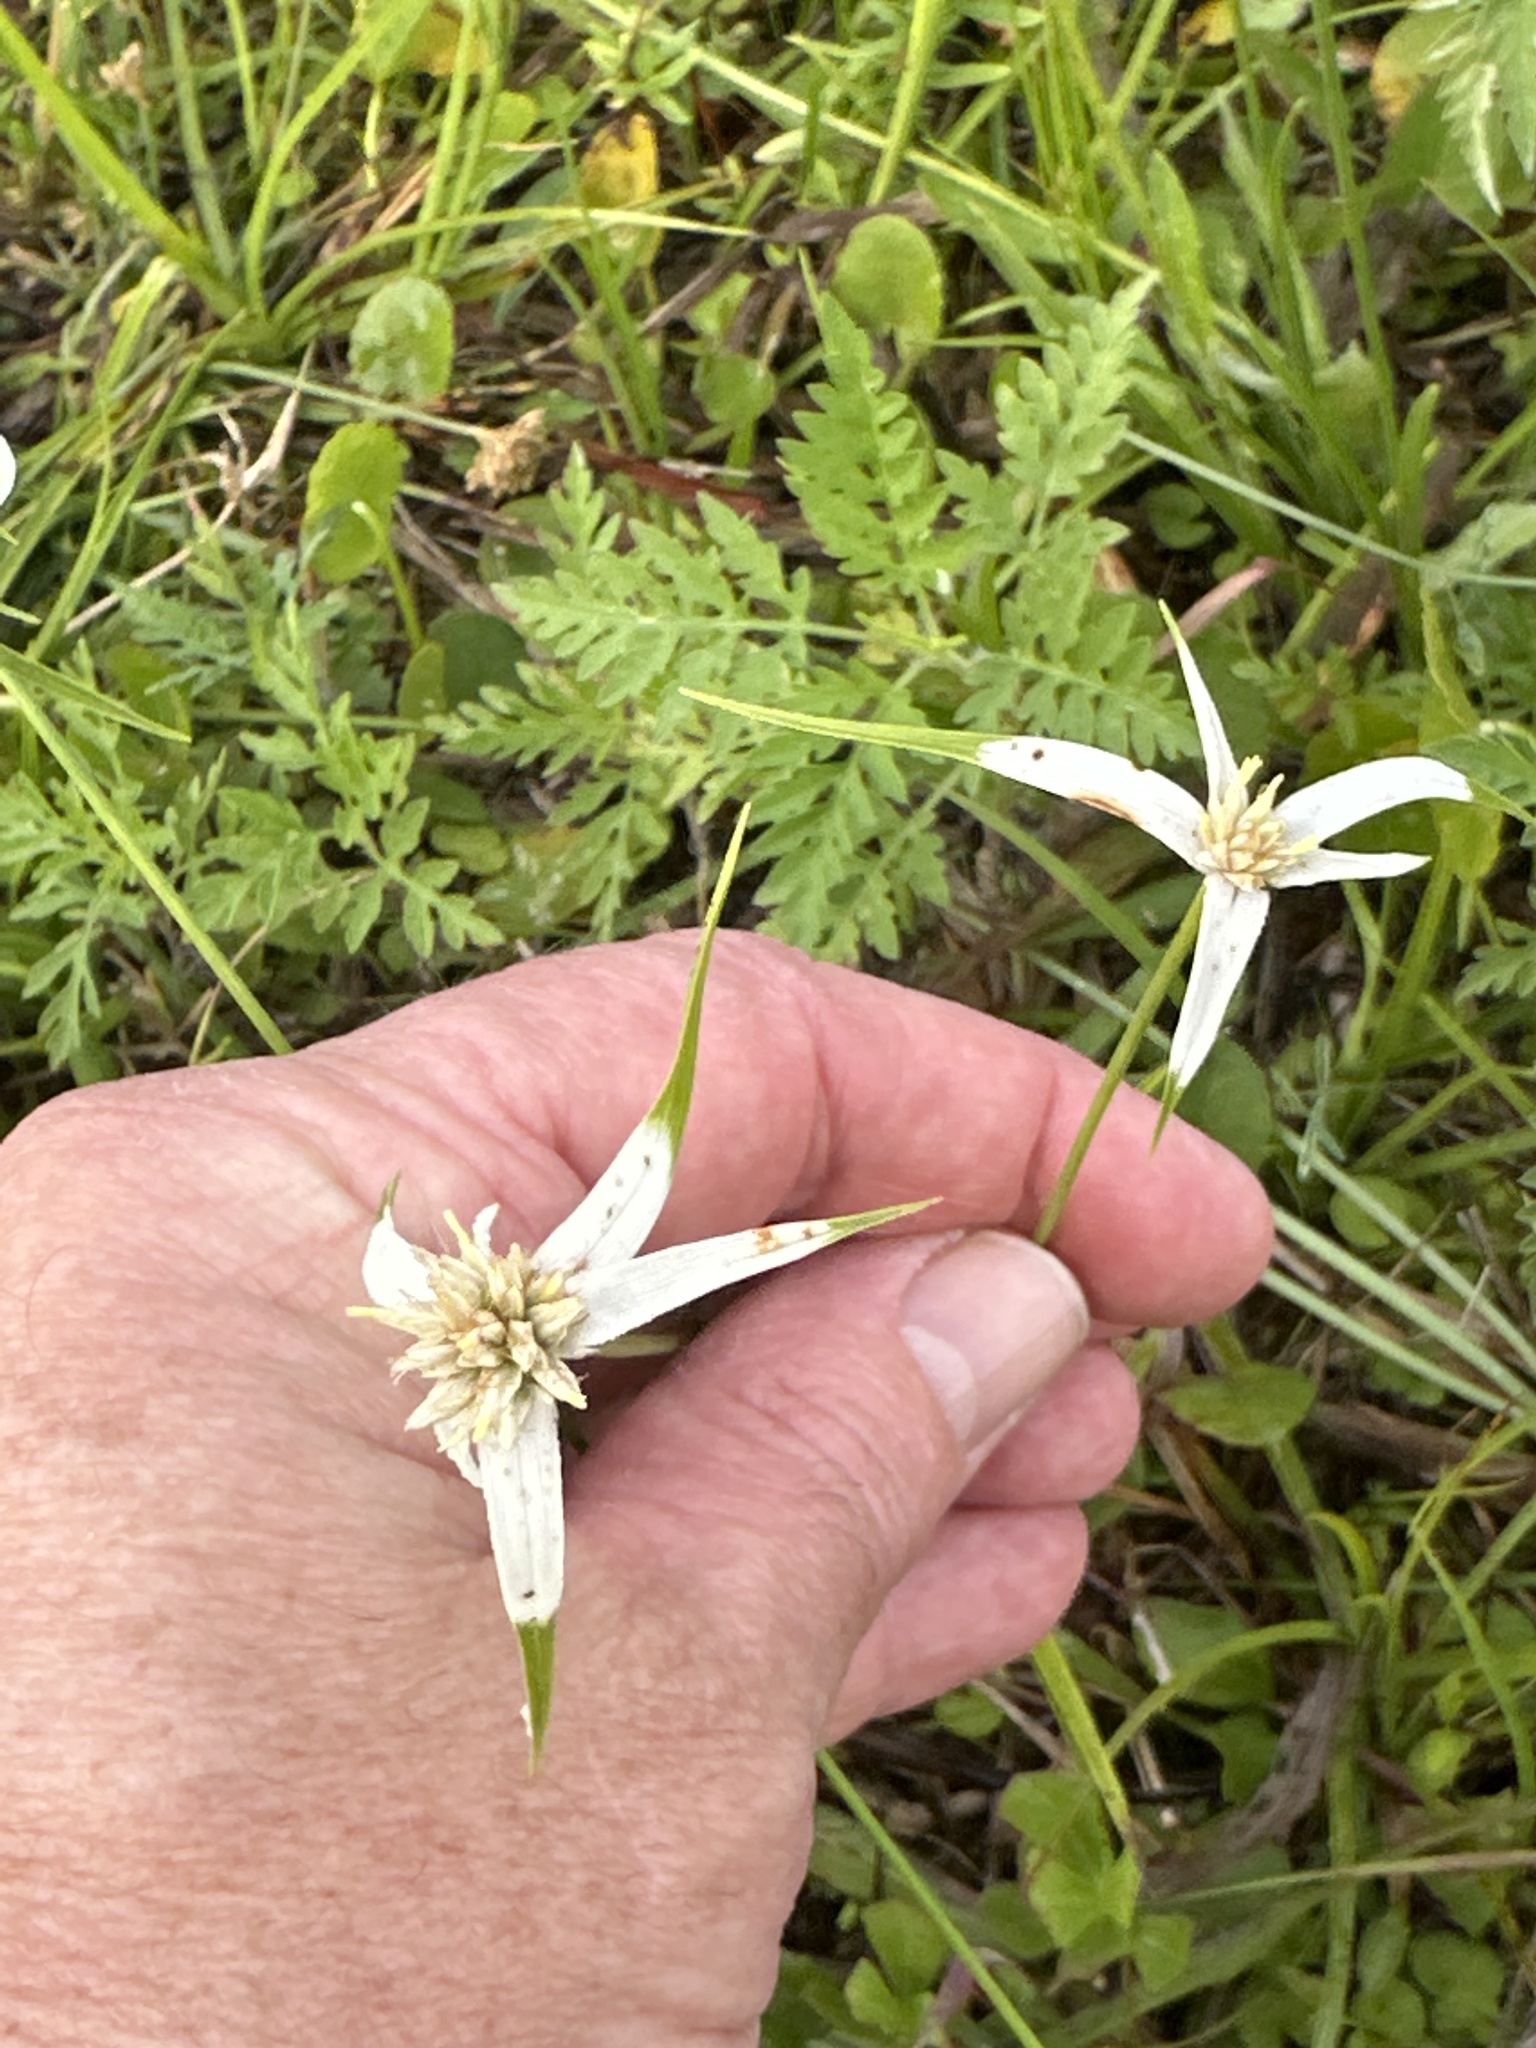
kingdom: Plantae
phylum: Tracheophyta
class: Liliopsida
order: Poales
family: Cyperaceae
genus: Rhynchospora
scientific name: Rhynchospora colorata
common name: Star sedge
